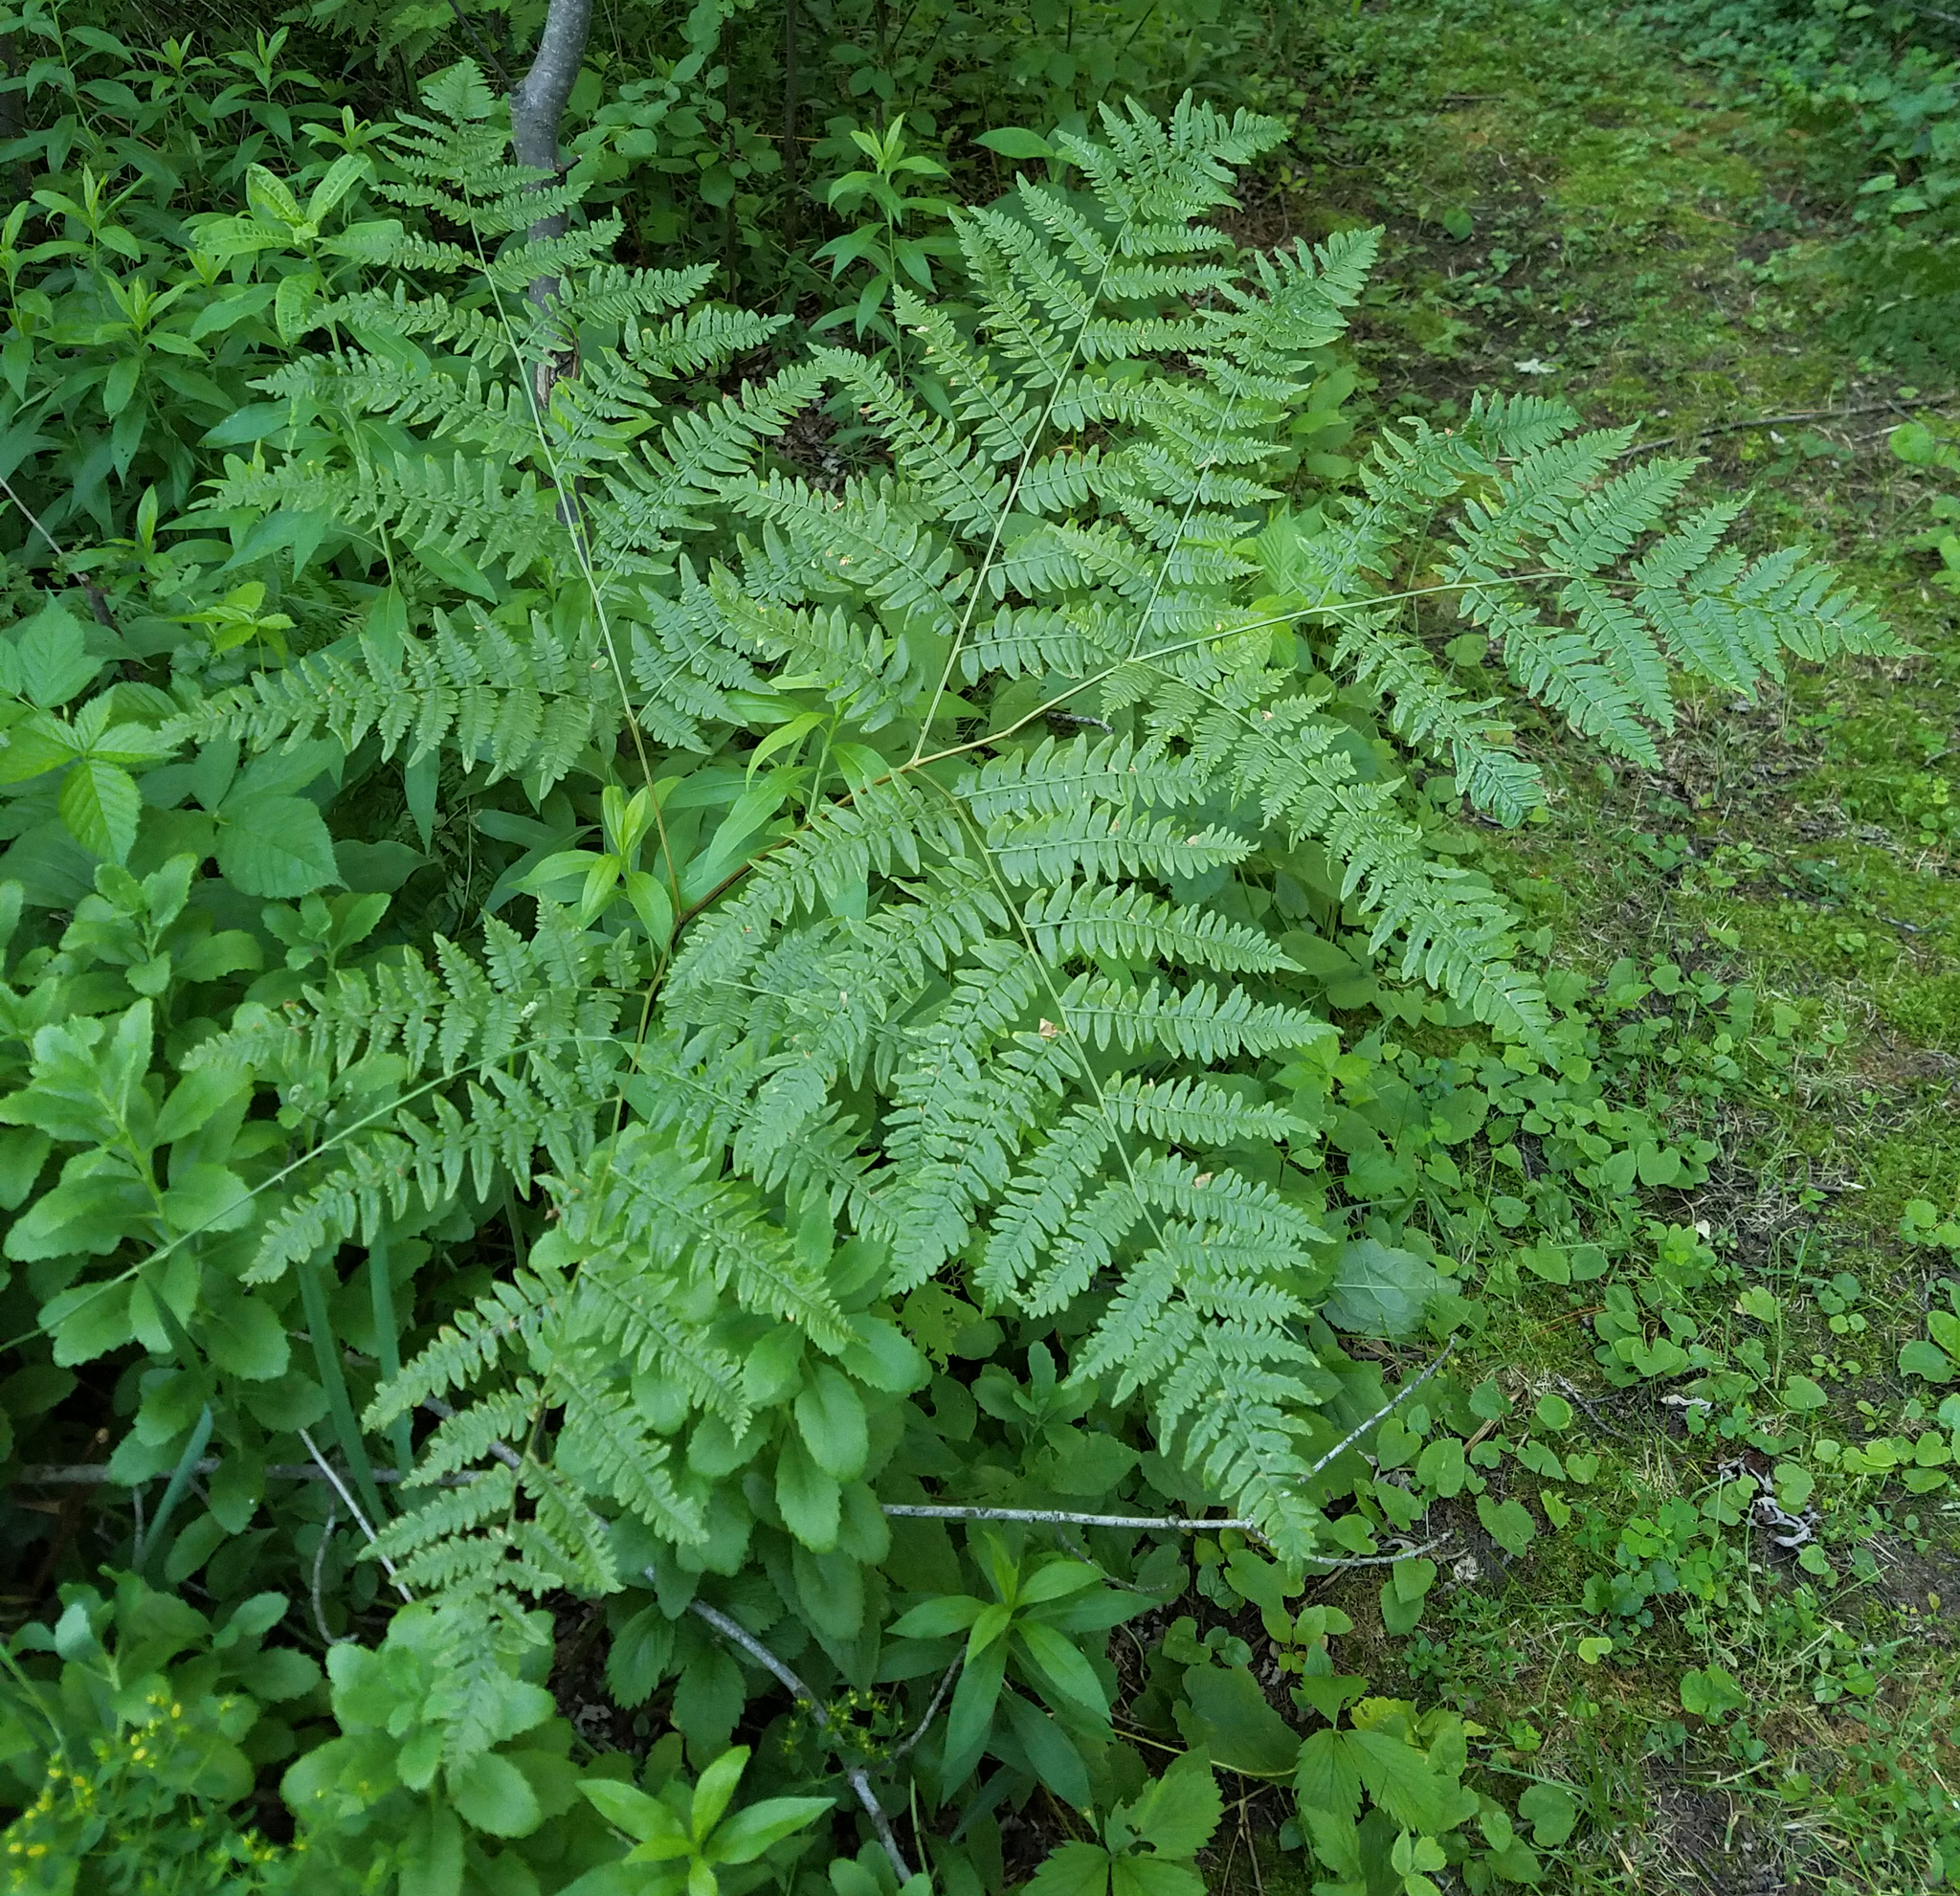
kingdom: Plantae
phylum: Tracheophyta
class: Polypodiopsida
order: Polypodiales
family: Dennstaedtiaceae
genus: Pteridium
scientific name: Pteridium aquilinum
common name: Bracken
